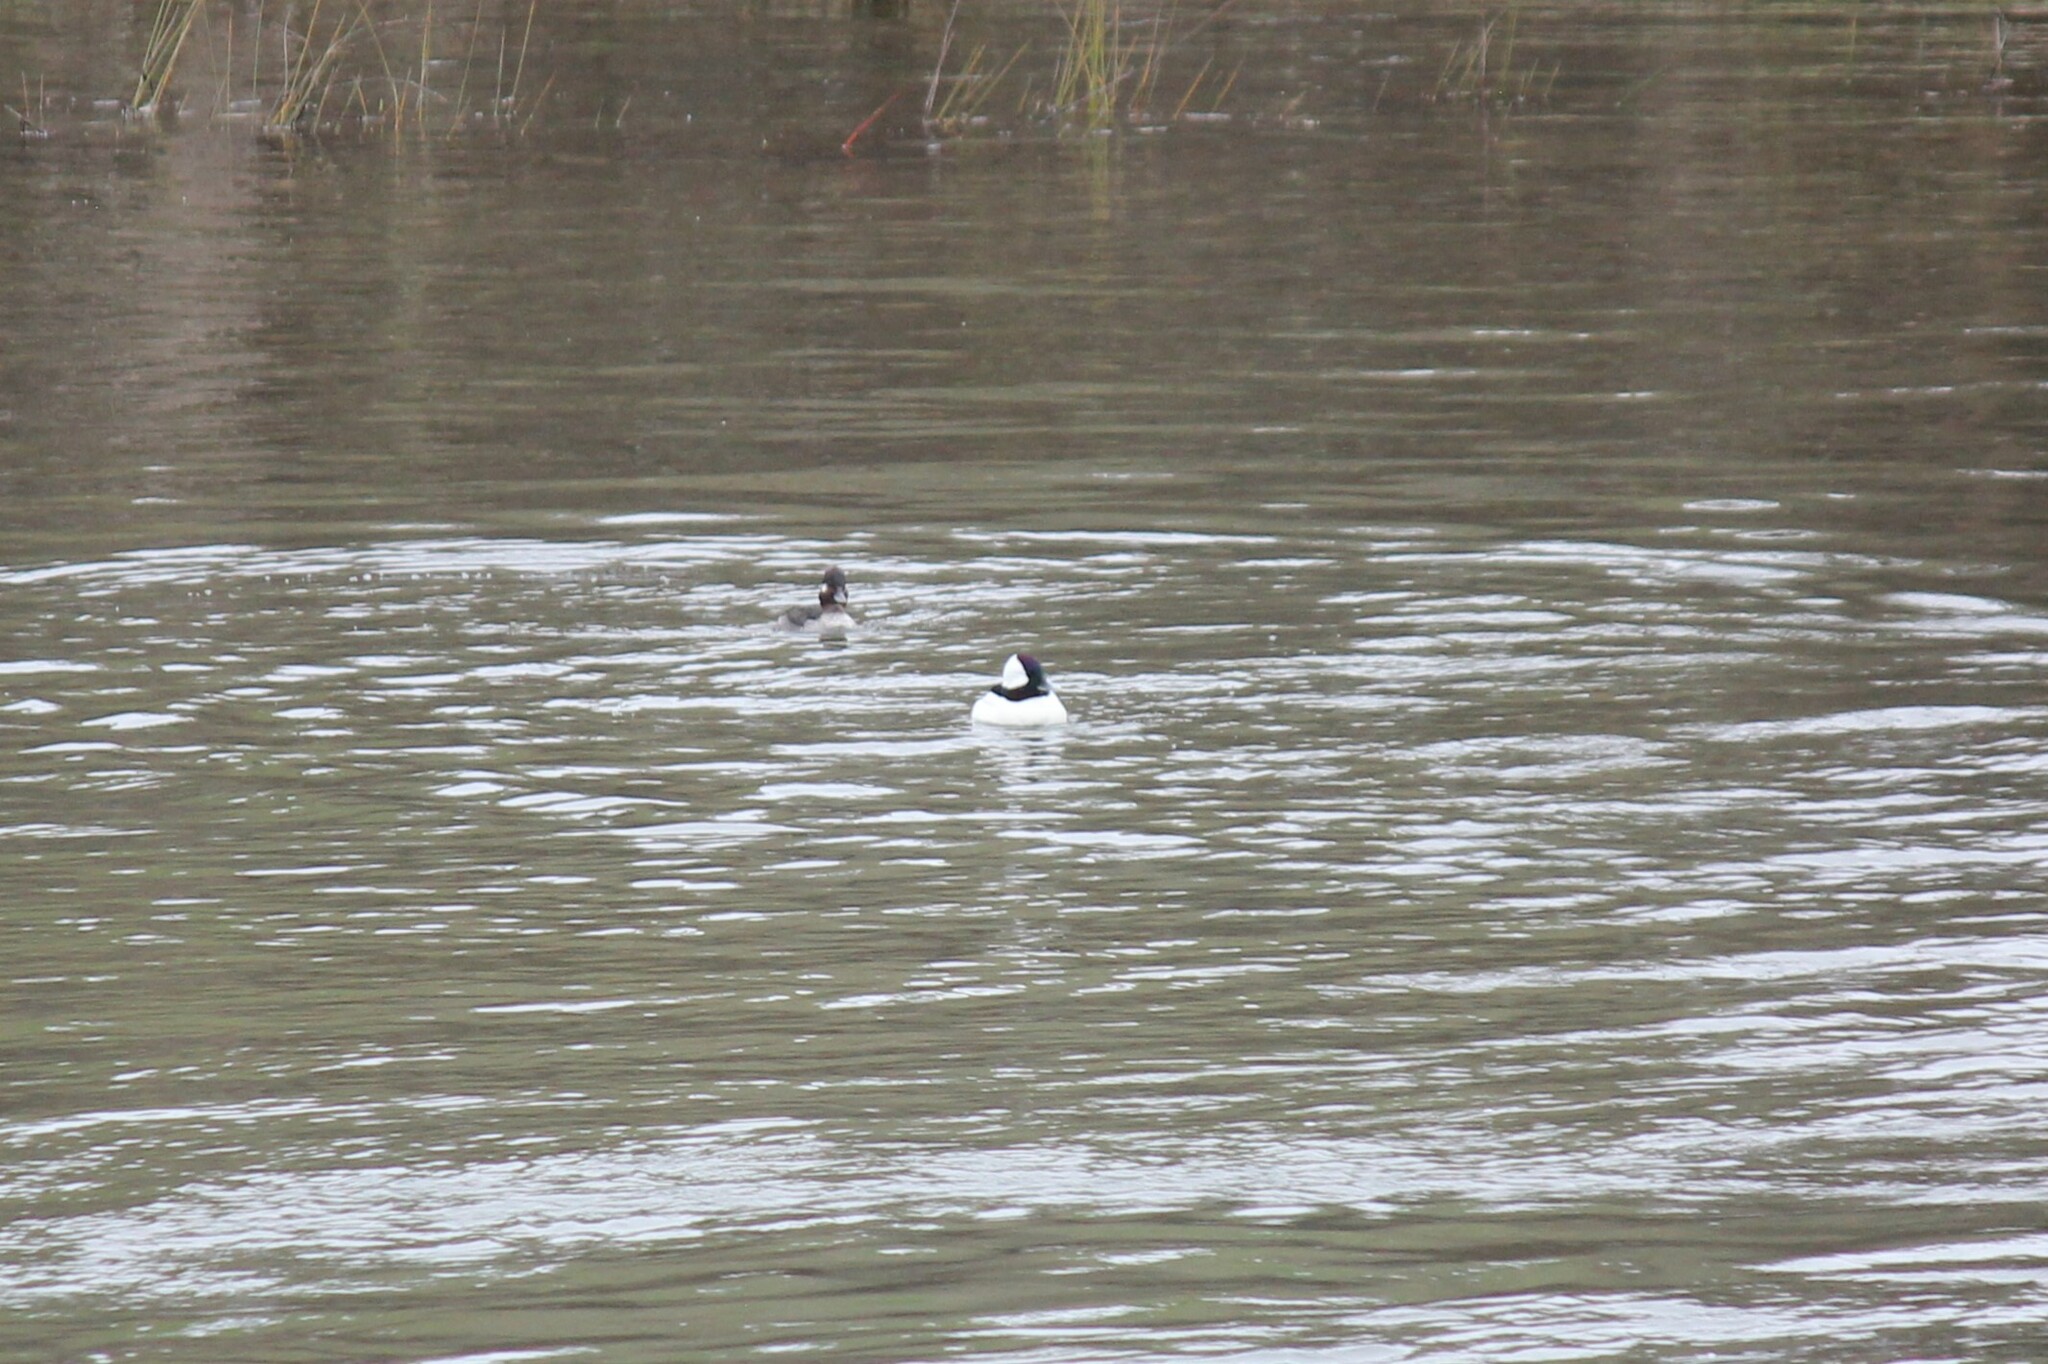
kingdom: Animalia
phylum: Chordata
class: Aves
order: Anseriformes
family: Anatidae
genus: Bucephala
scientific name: Bucephala albeola
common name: Bufflehead
